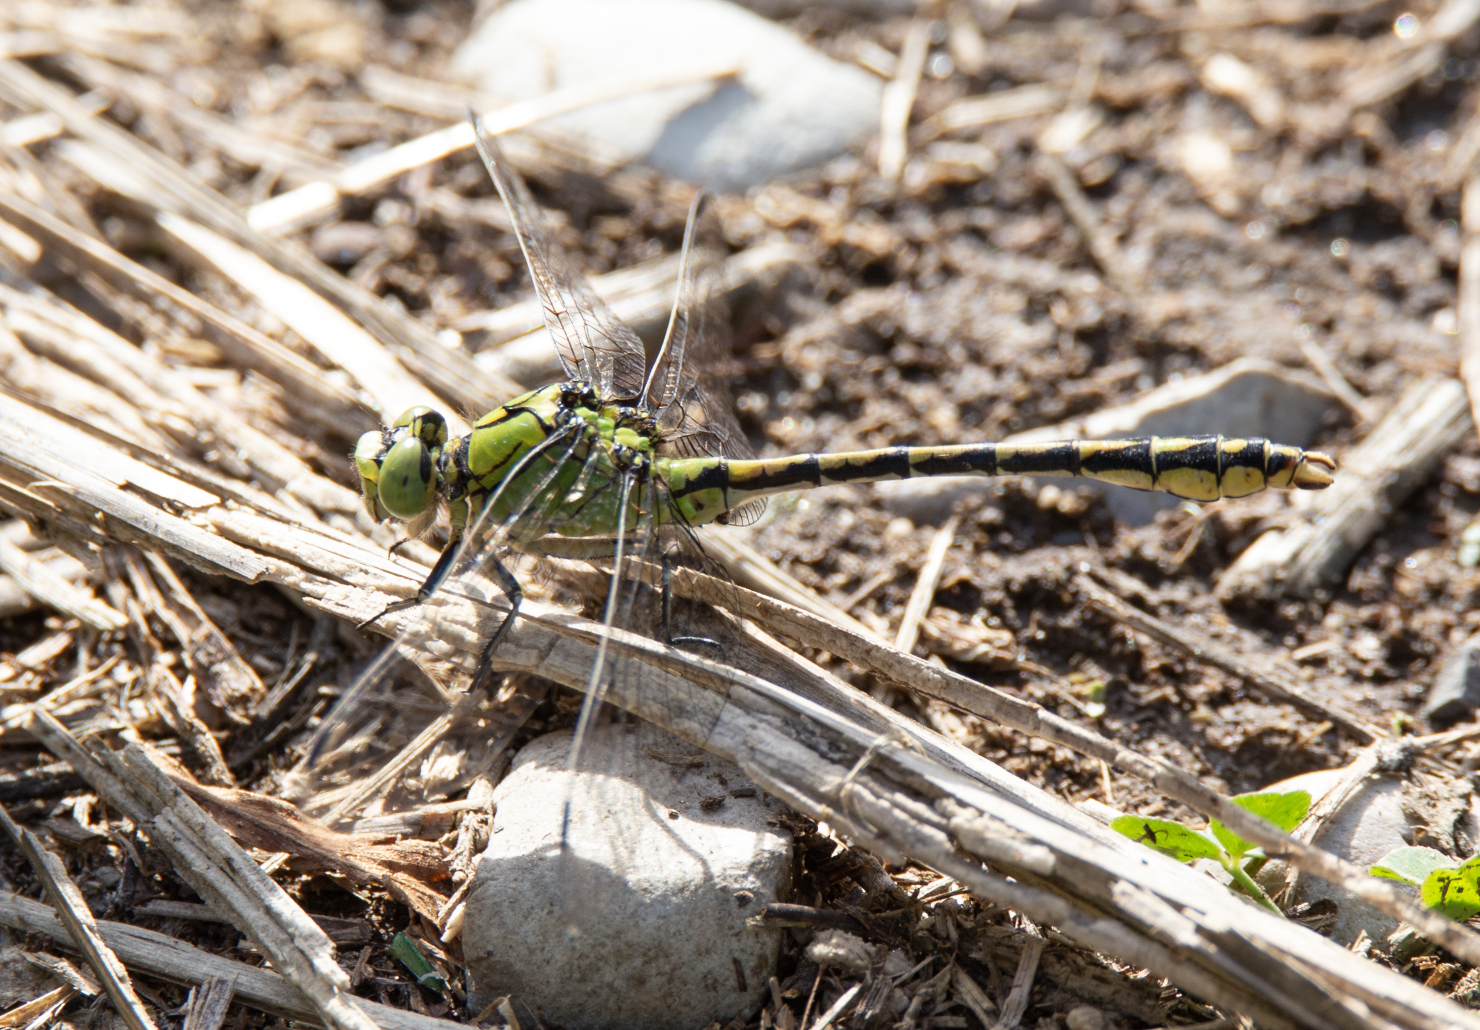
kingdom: Animalia
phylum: Arthropoda
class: Insecta
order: Odonata
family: Gomphidae
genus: Ophiogomphus
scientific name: Ophiogomphus cecilia
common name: Green snaketail
